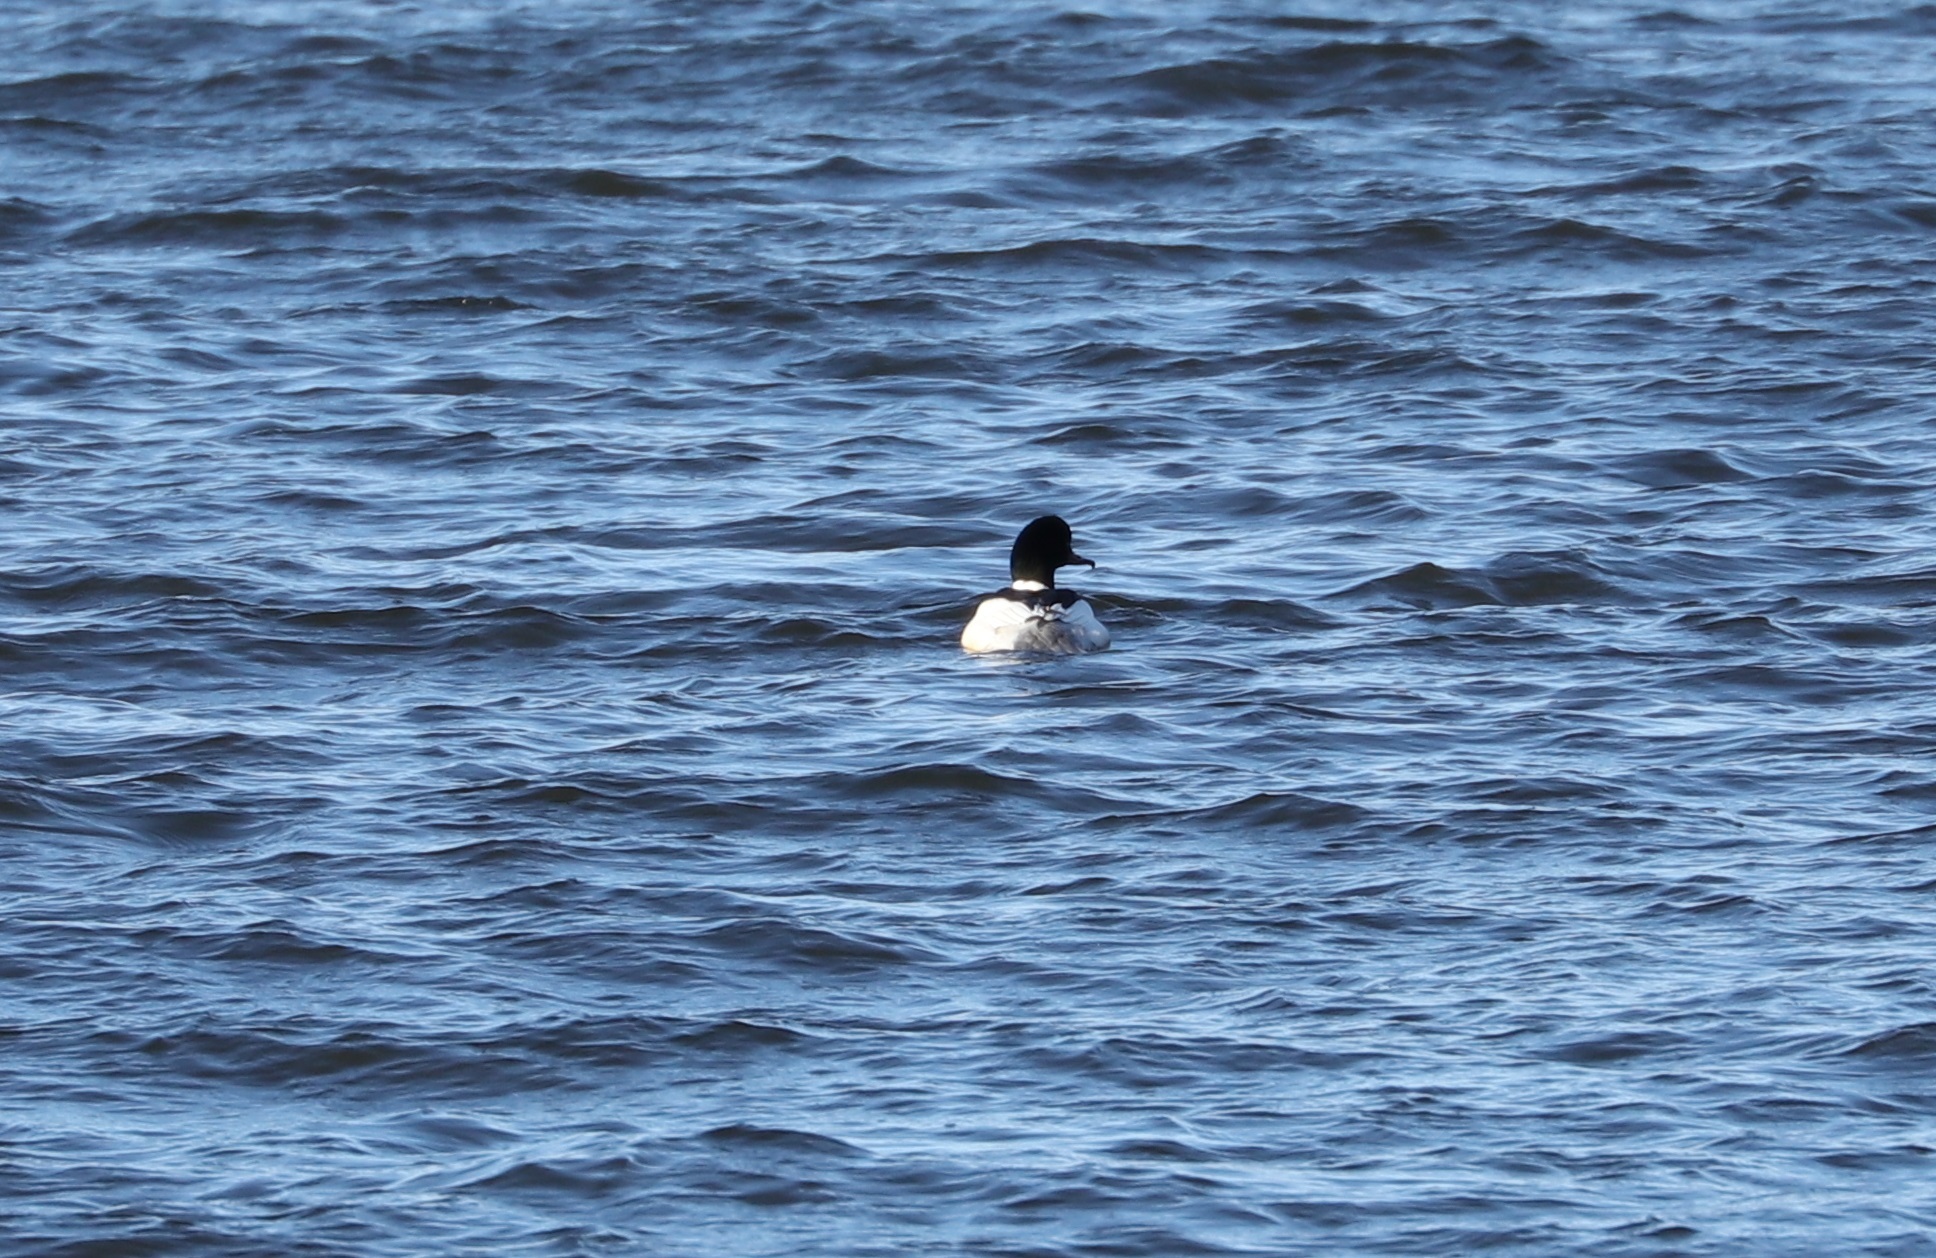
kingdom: Animalia
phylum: Chordata
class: Aves
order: Anseriformes
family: Anatidae
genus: Mergus
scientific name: Mergus merganser
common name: Common merganser
